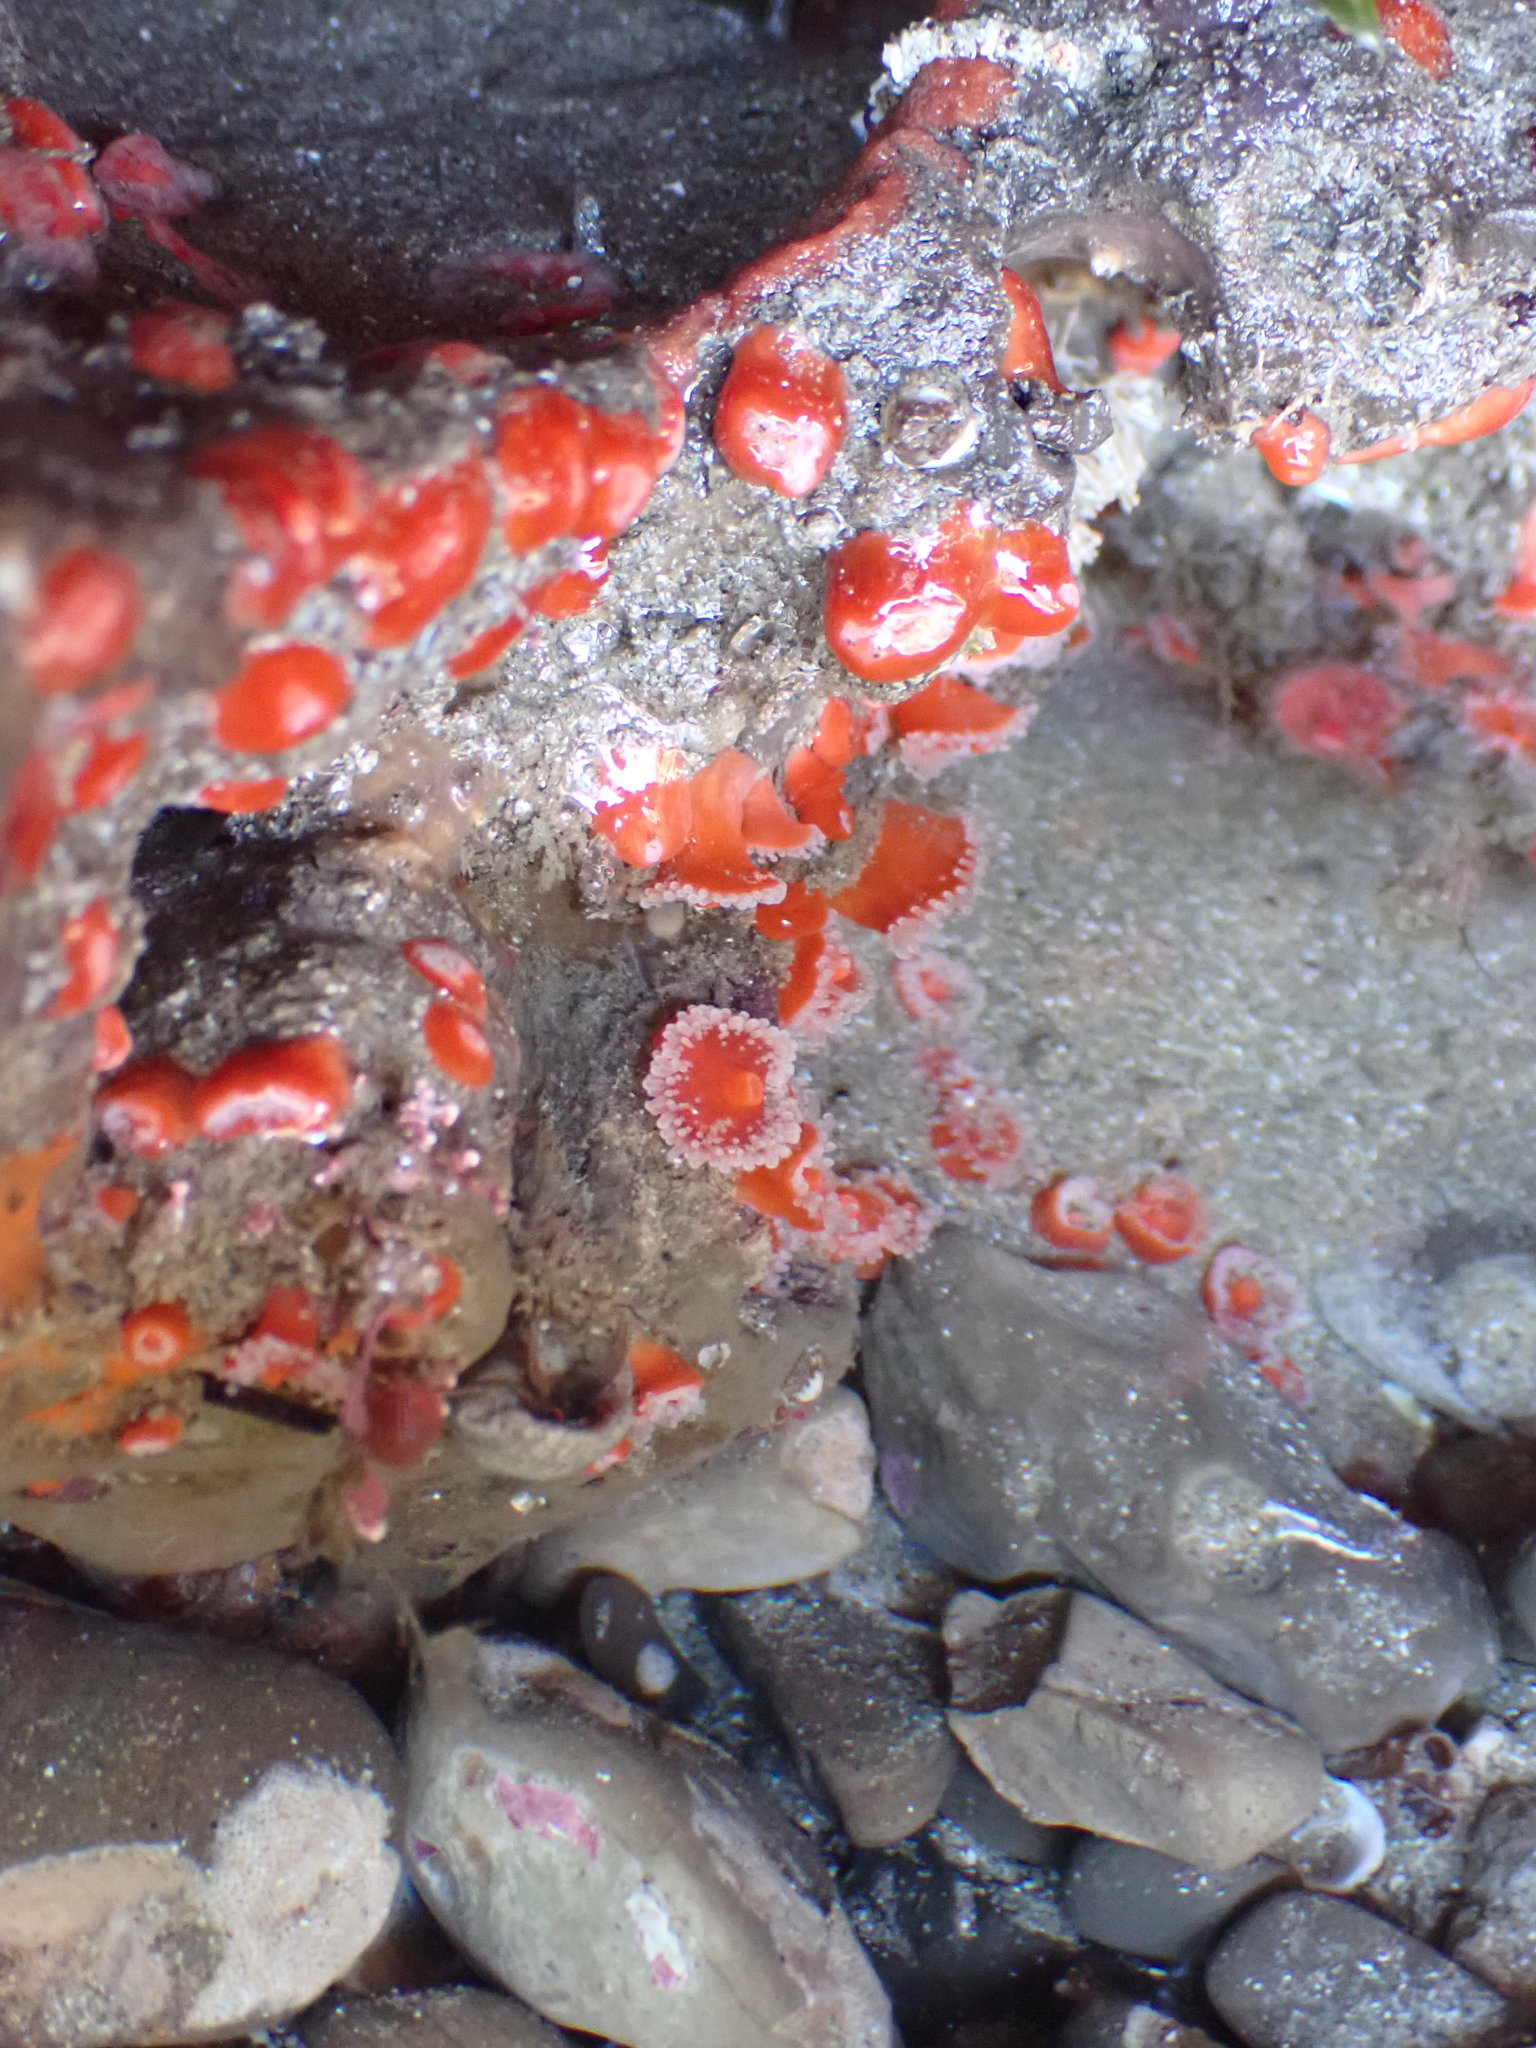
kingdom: Animalia
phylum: Cnidaria
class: Anthozoa
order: Corallimorpharia
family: Corallimorphidae
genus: Corynactis
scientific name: Corynactis californica
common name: Strawberry corallimorpharian
